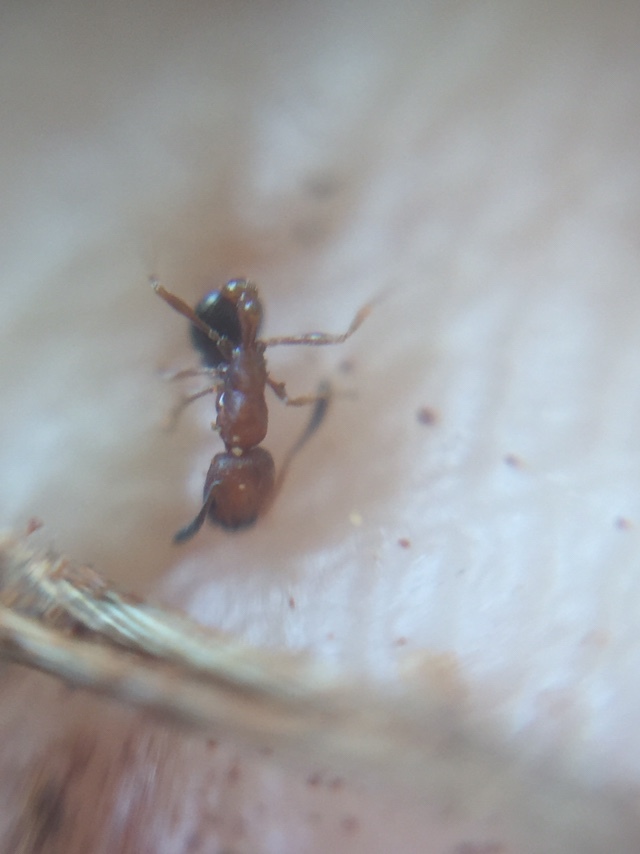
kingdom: Animalia
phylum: Arthropoda
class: Insecta
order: Hymenoptera
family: Formicidae
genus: Cardiocondyla
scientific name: Cardiocondyla minutior
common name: Ant
